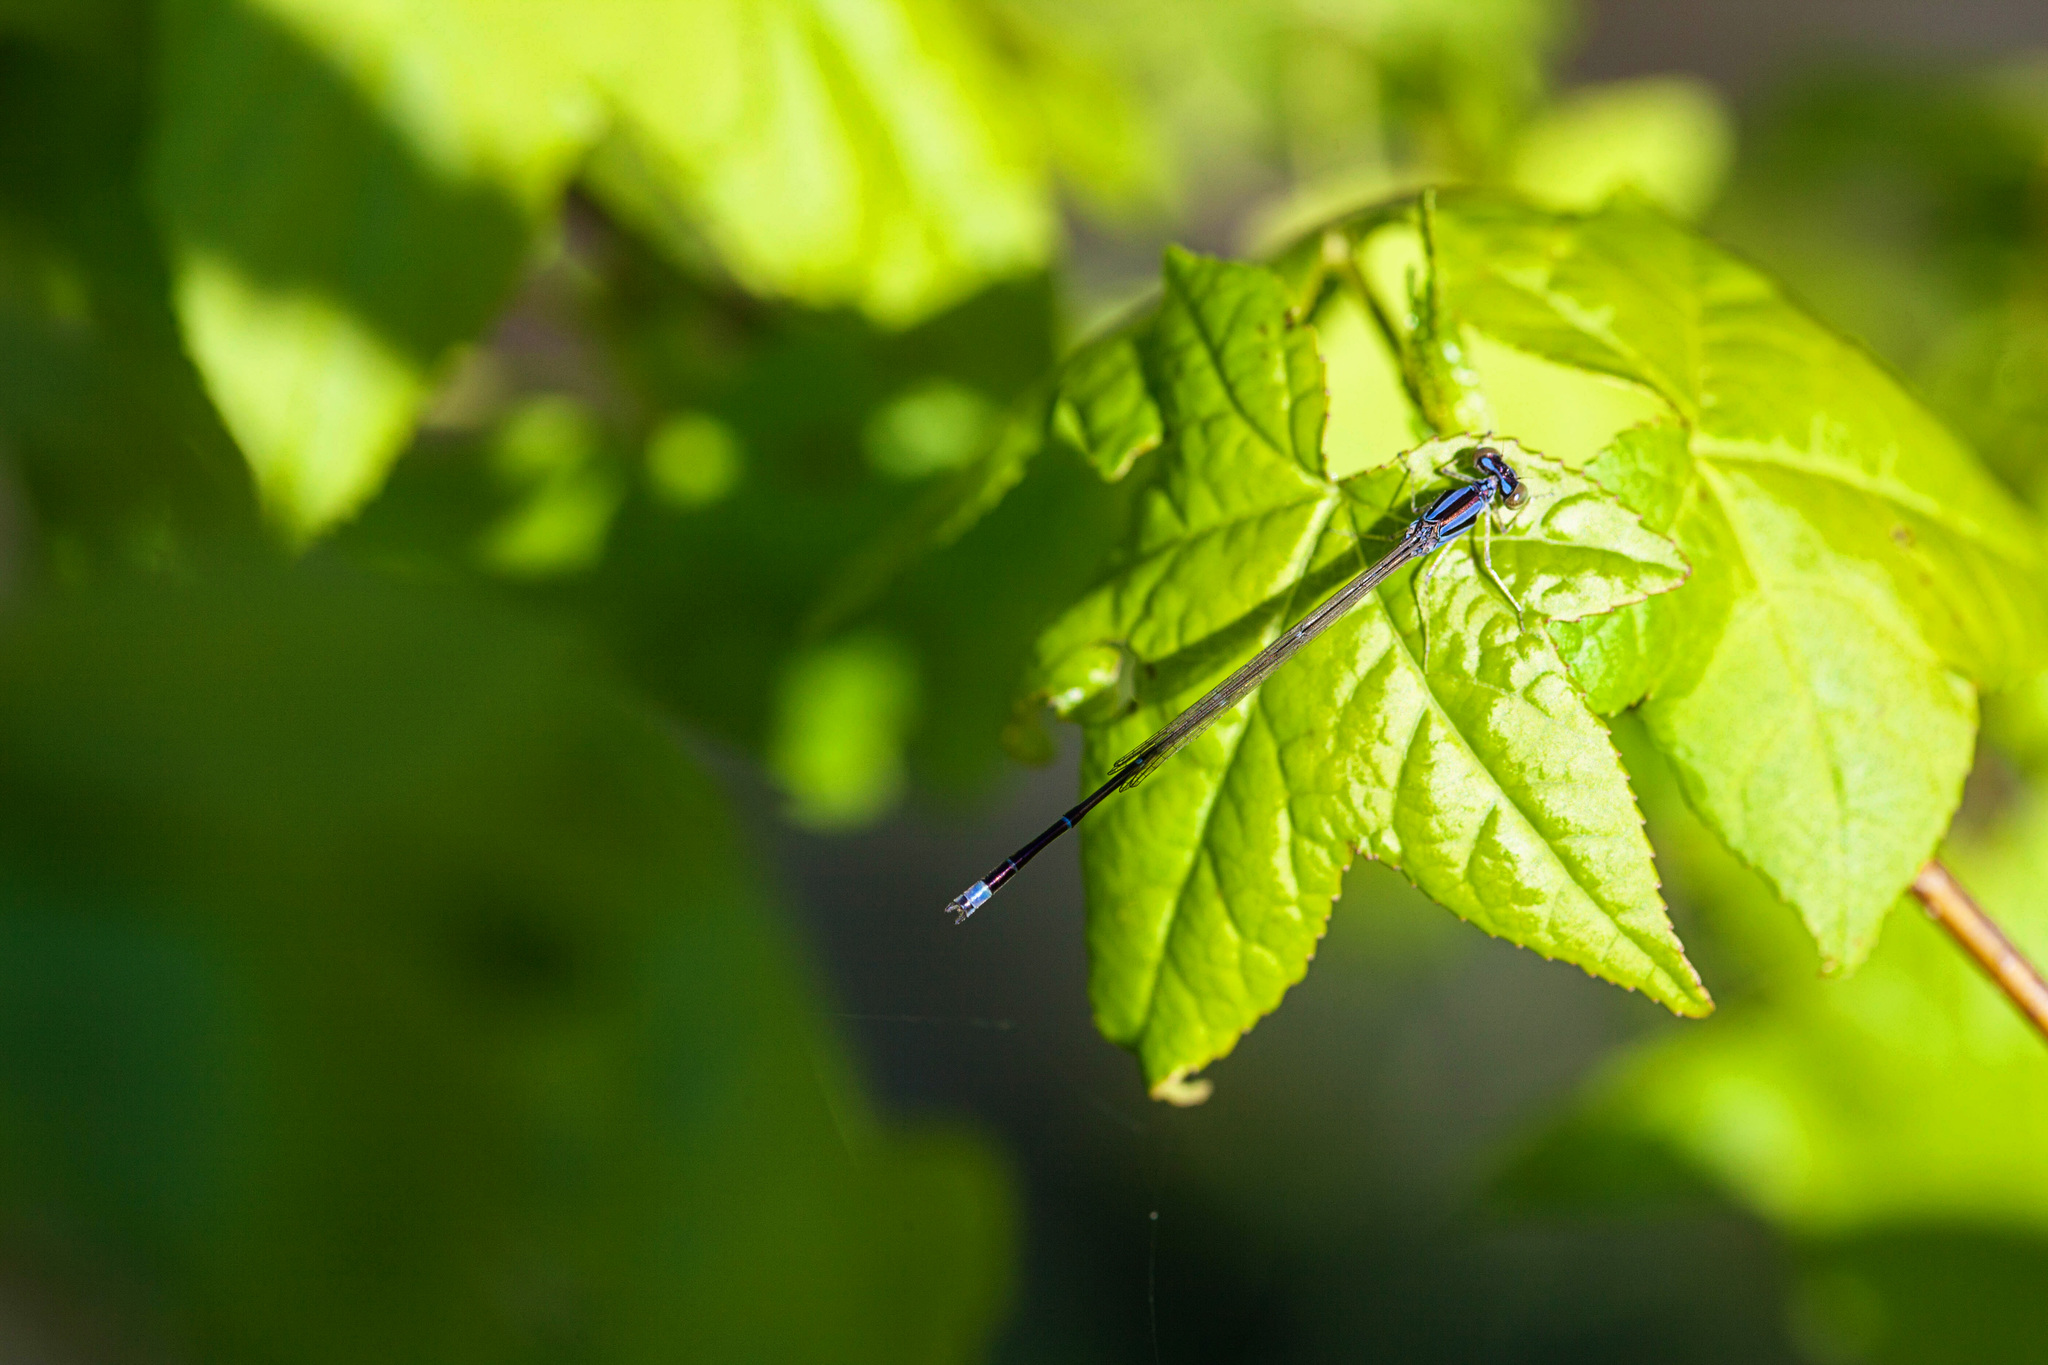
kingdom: Animalia
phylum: Arthropoda
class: Insecta
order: Odonata
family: Coenagrionidae
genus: Enallagma
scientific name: Enallagma signatum
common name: Orange bluet
